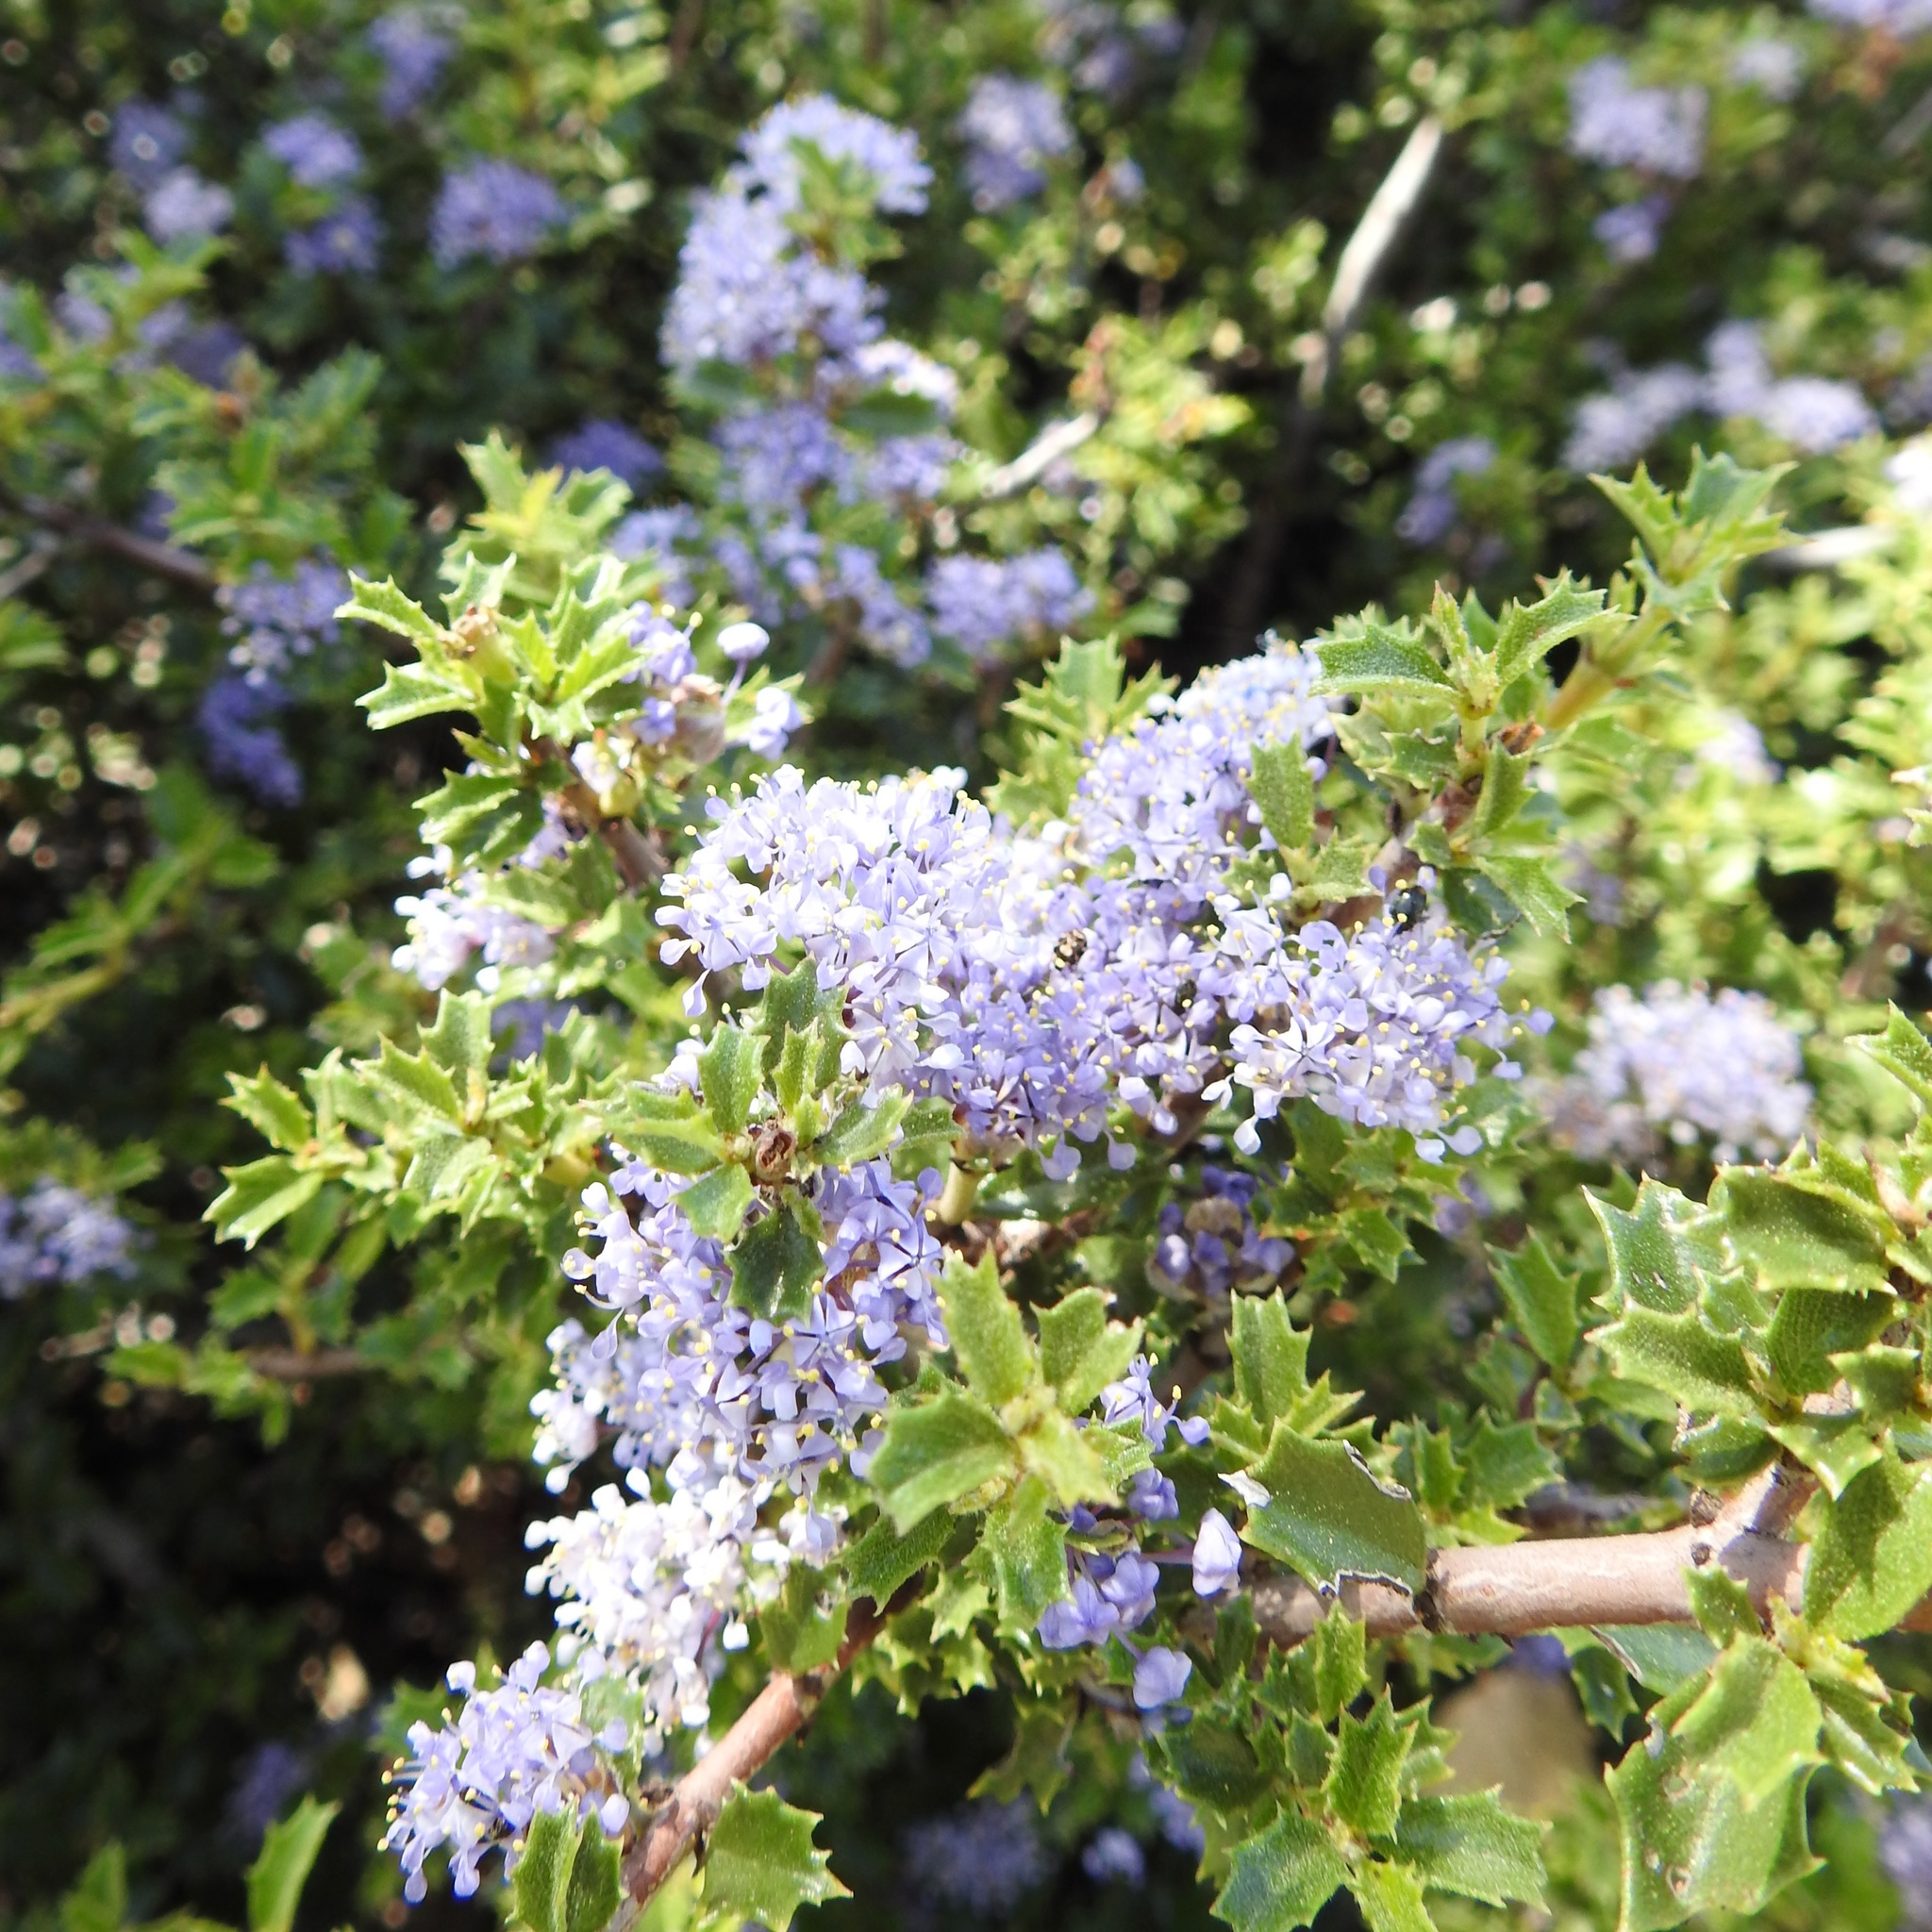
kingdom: Plantae
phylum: Tracheophyta
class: Magnoliopsida
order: Rosales
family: Rhamnaceae
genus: Ceanothus
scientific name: Ceanothus jepsonii
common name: Muskbrush
